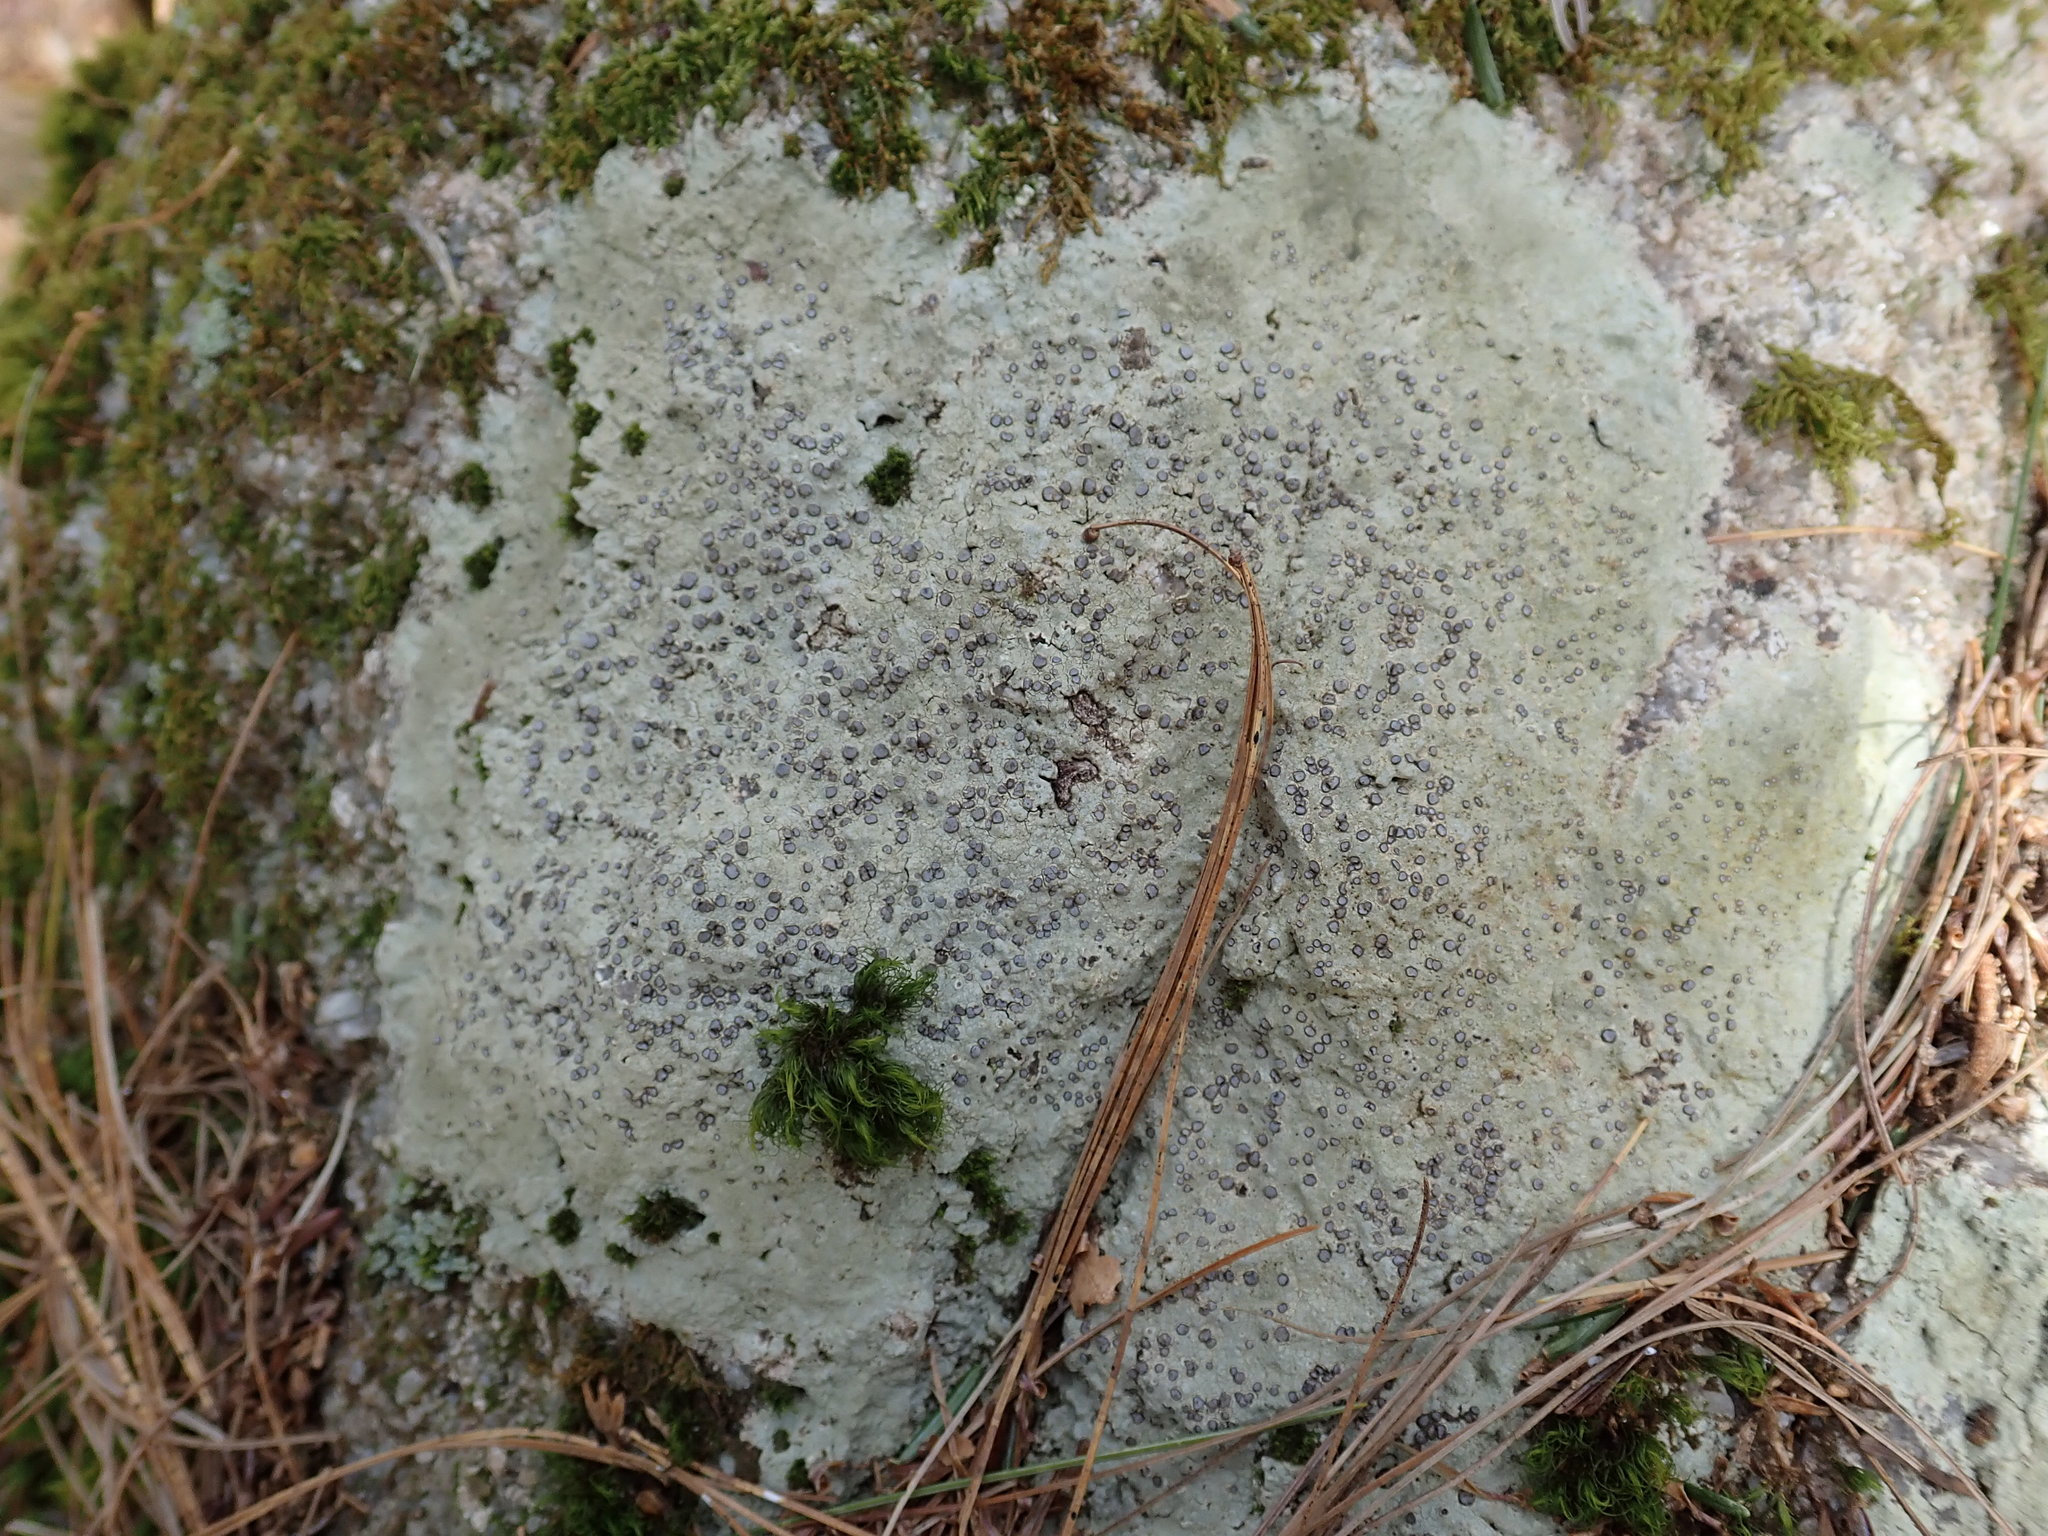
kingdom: Fungi
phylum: Ascomycota
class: Lecanoromycetes
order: Lecideales
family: Lecideaceae
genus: Porpidia
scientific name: Porpidia albocaerulescens
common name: Smokey-eyed boulder lichen
